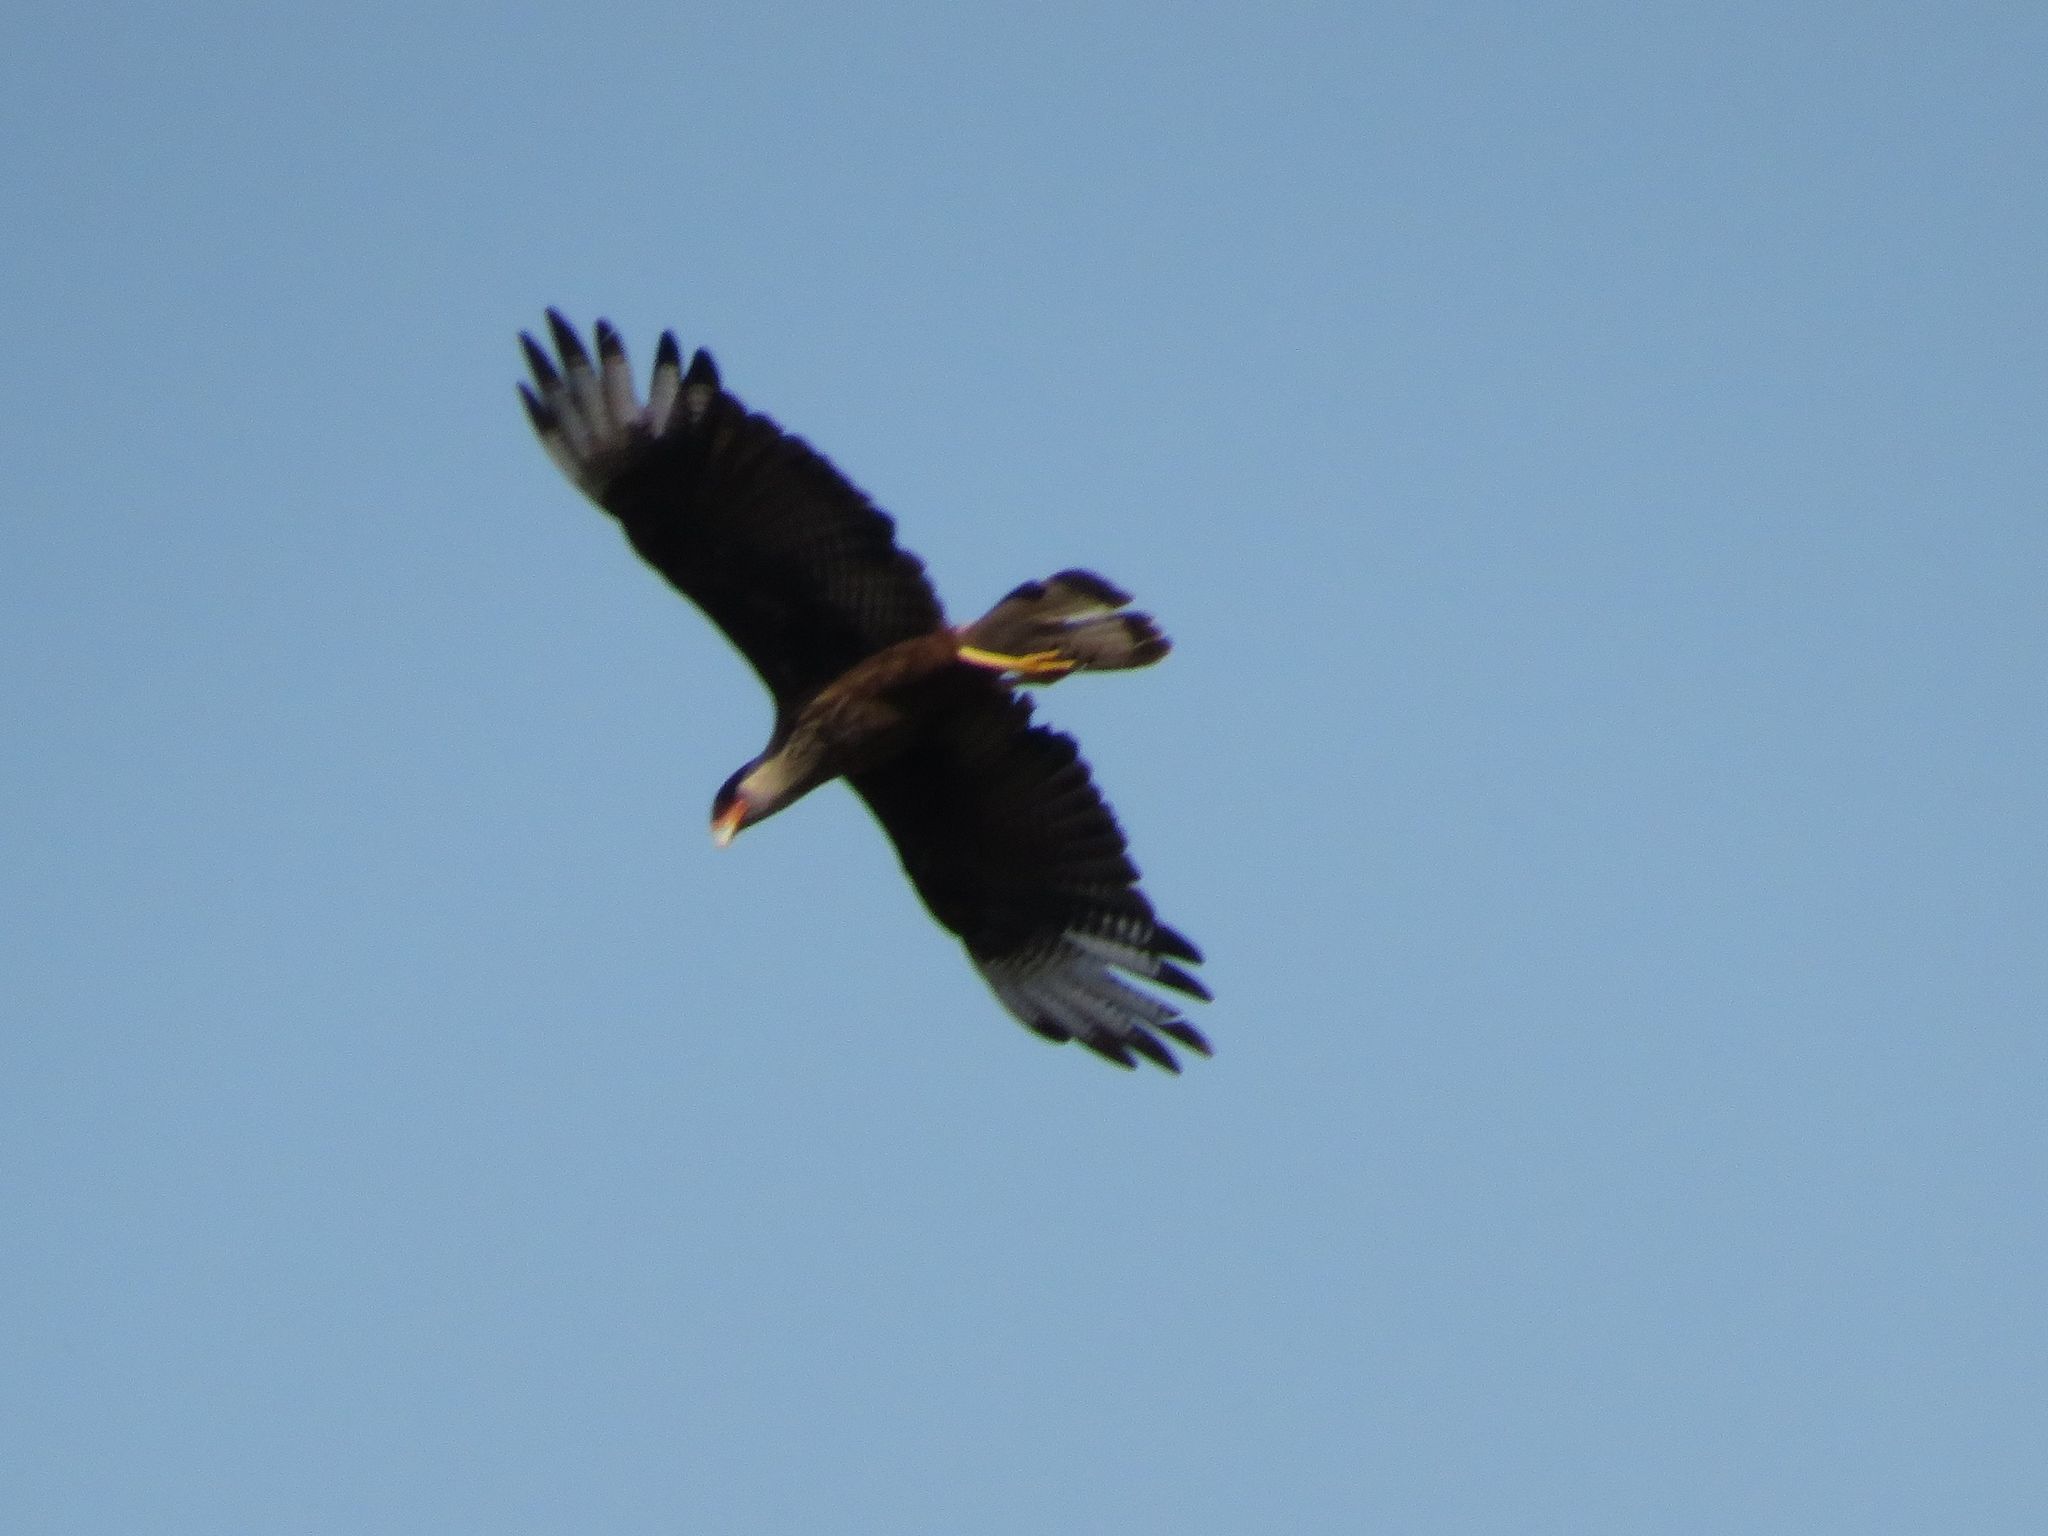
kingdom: Animalia
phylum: Chordata
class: Aves
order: Falconiformes
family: Falconidae
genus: Caracara
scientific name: Caracara plancus
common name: Southern caracara
